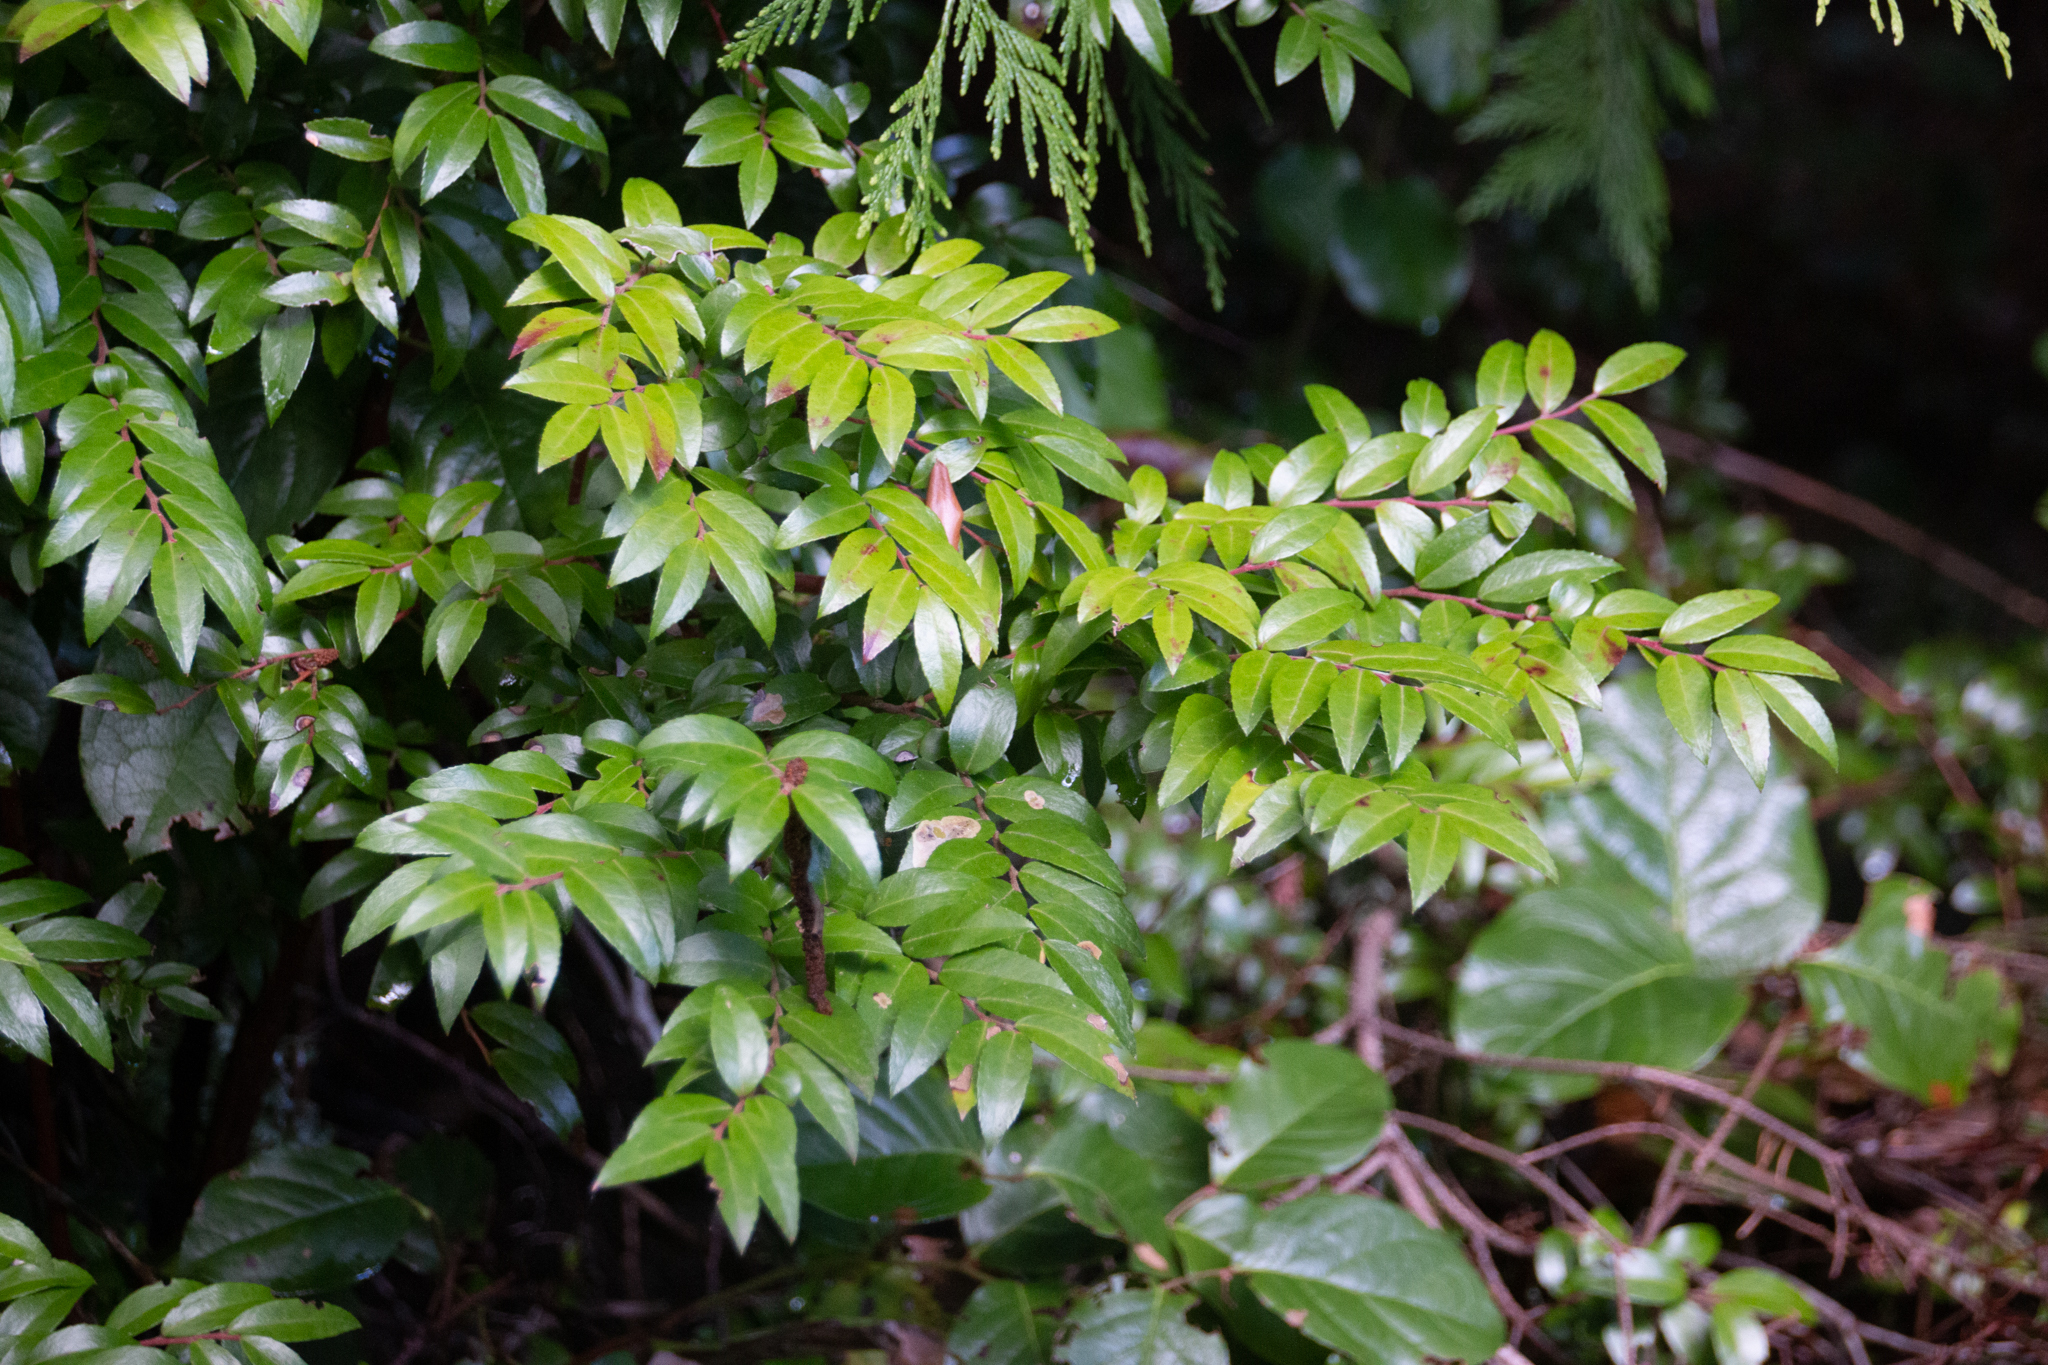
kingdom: Plantae
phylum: Tracheophyta
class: Magnoliopsida
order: Ericales
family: Ericaceae
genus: Vaccinium
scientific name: Vaccinium ovatum
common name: California-huckleberry
